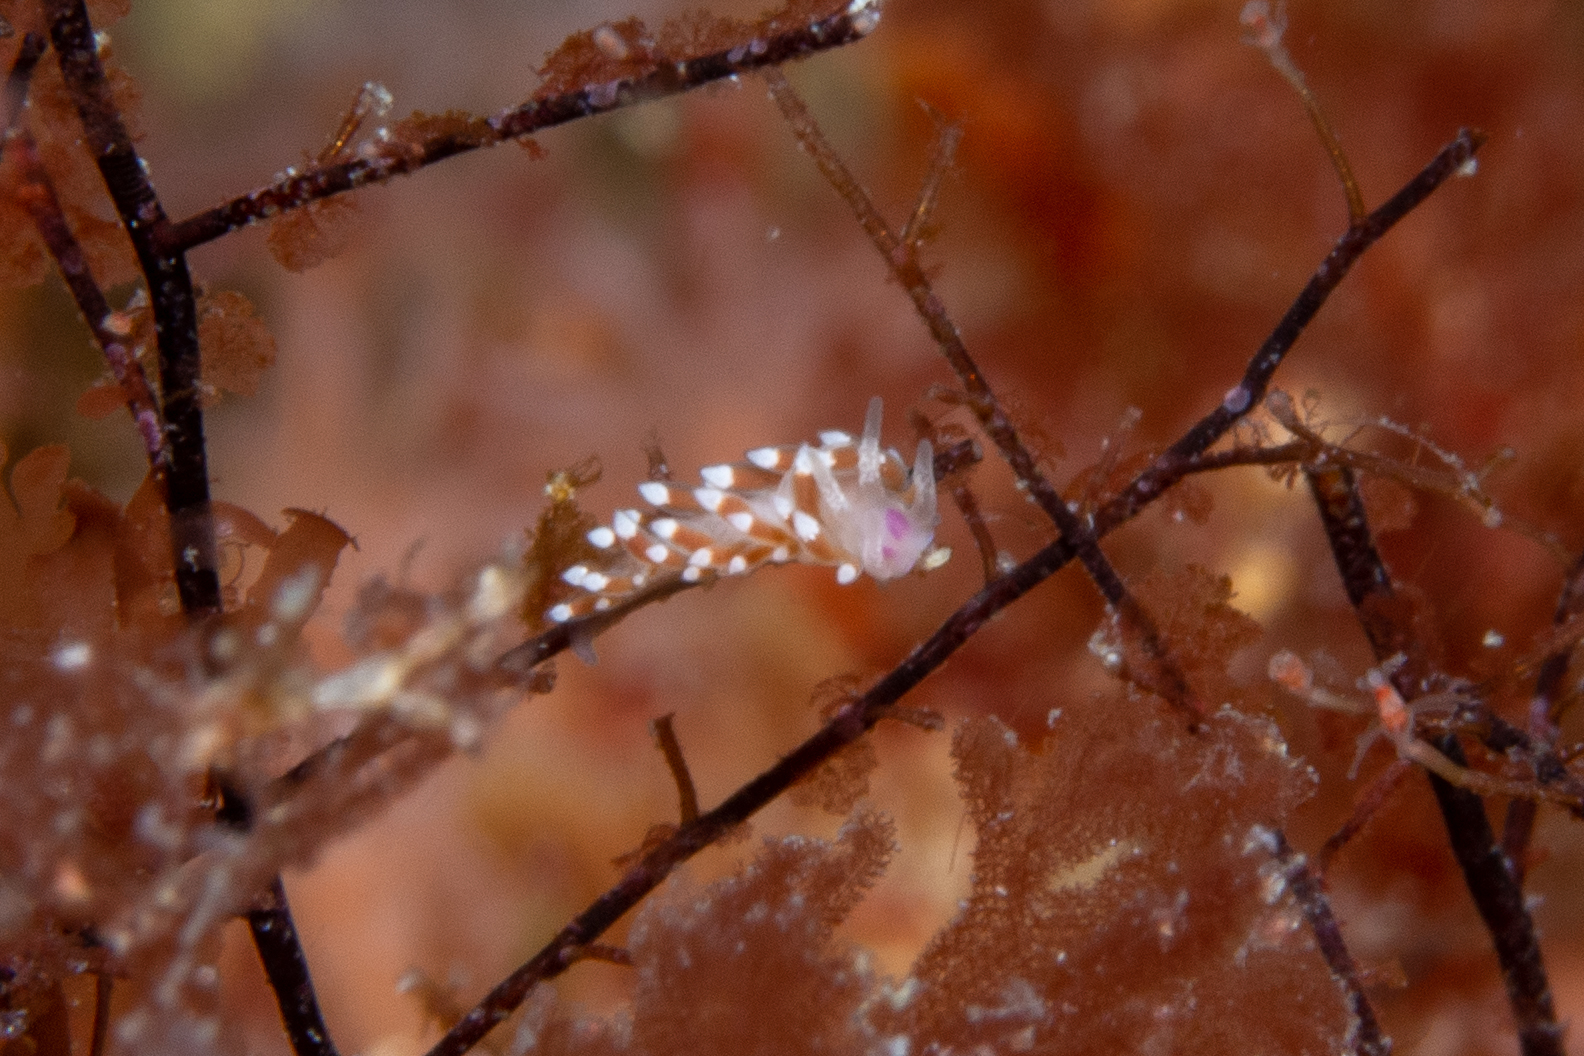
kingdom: Animalia
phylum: Mollusca
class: Gastropoda
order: Nudibranchia
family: Flabellinidae
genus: Coryphellina
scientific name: Coryphellina poenicia
